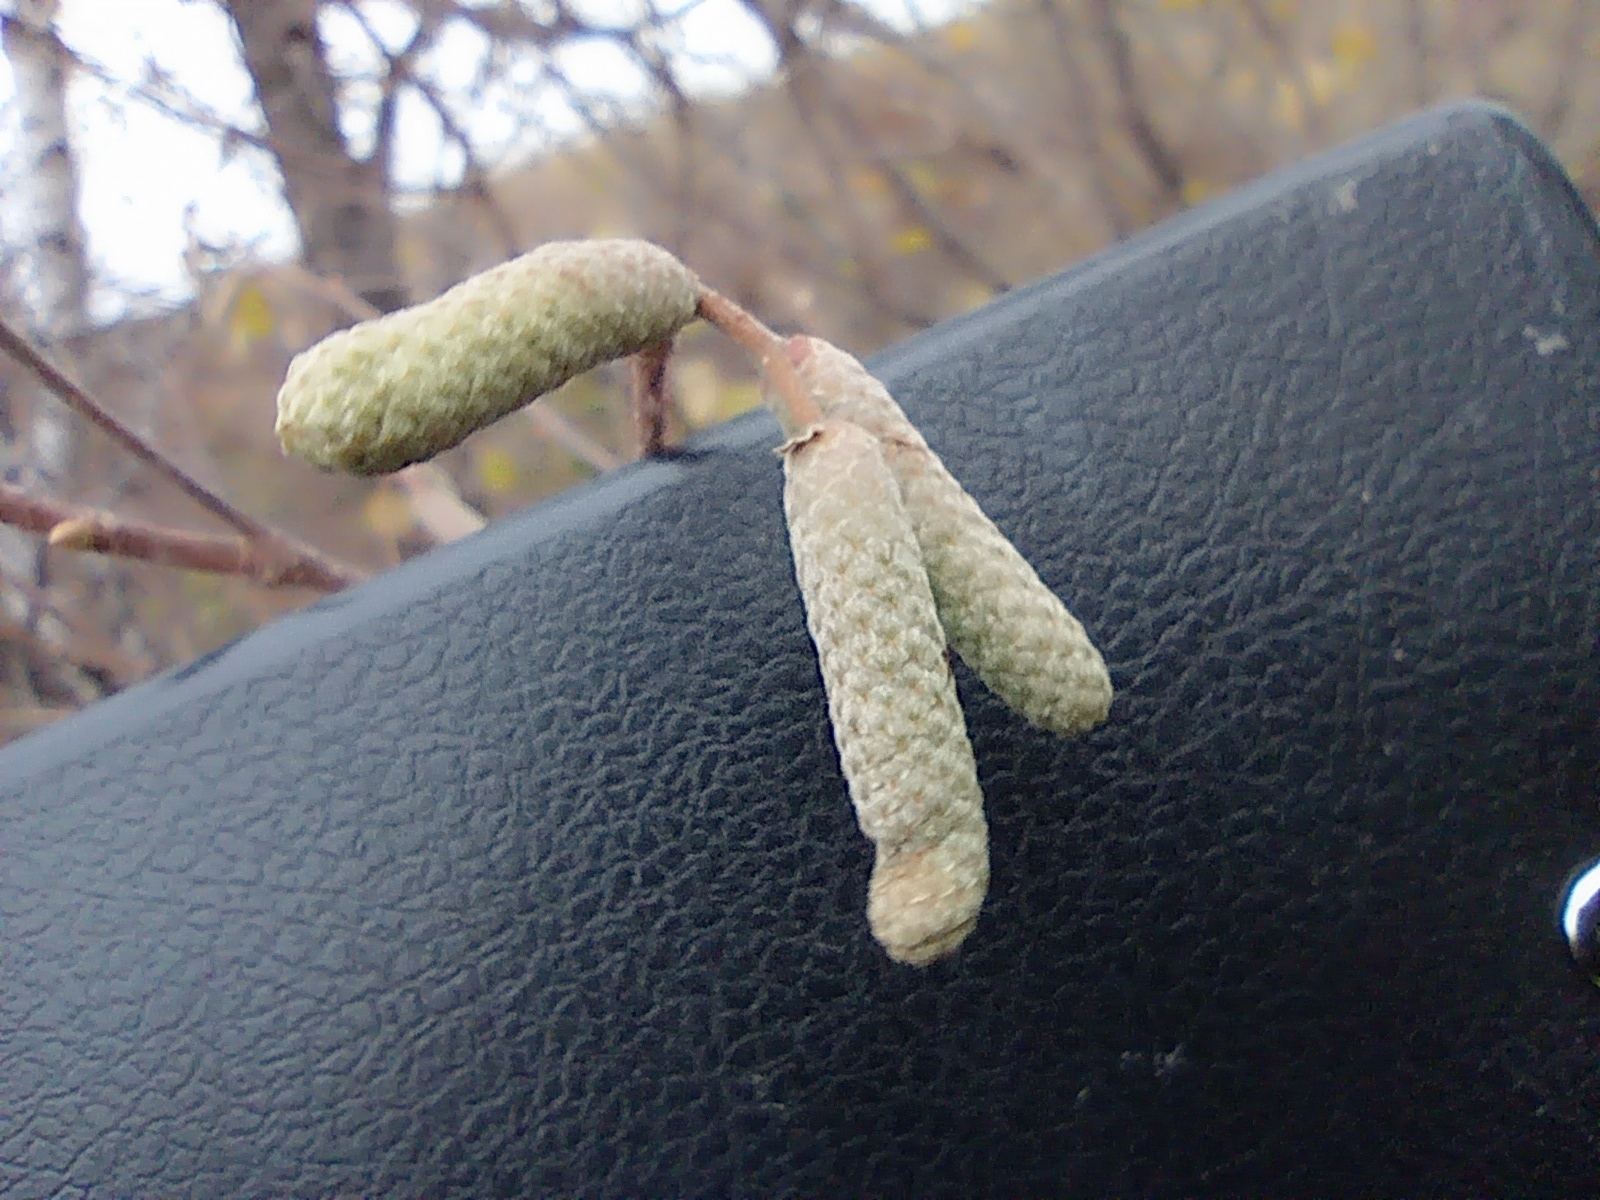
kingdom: Plantae
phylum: Tracheophyta
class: Magnoliopsida
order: Fagales
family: Betulaceae
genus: Corylus
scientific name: Corylus avellana
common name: European hazel
